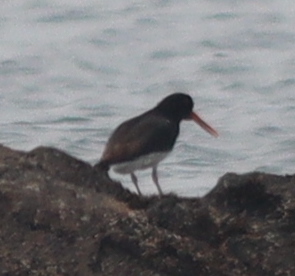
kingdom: Animalia
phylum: Chordata
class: Aves
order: Charadriiformes
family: Haematopodidae
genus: Haematopus
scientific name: Haematopus ostralegus
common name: Eurasian oystercatcher
